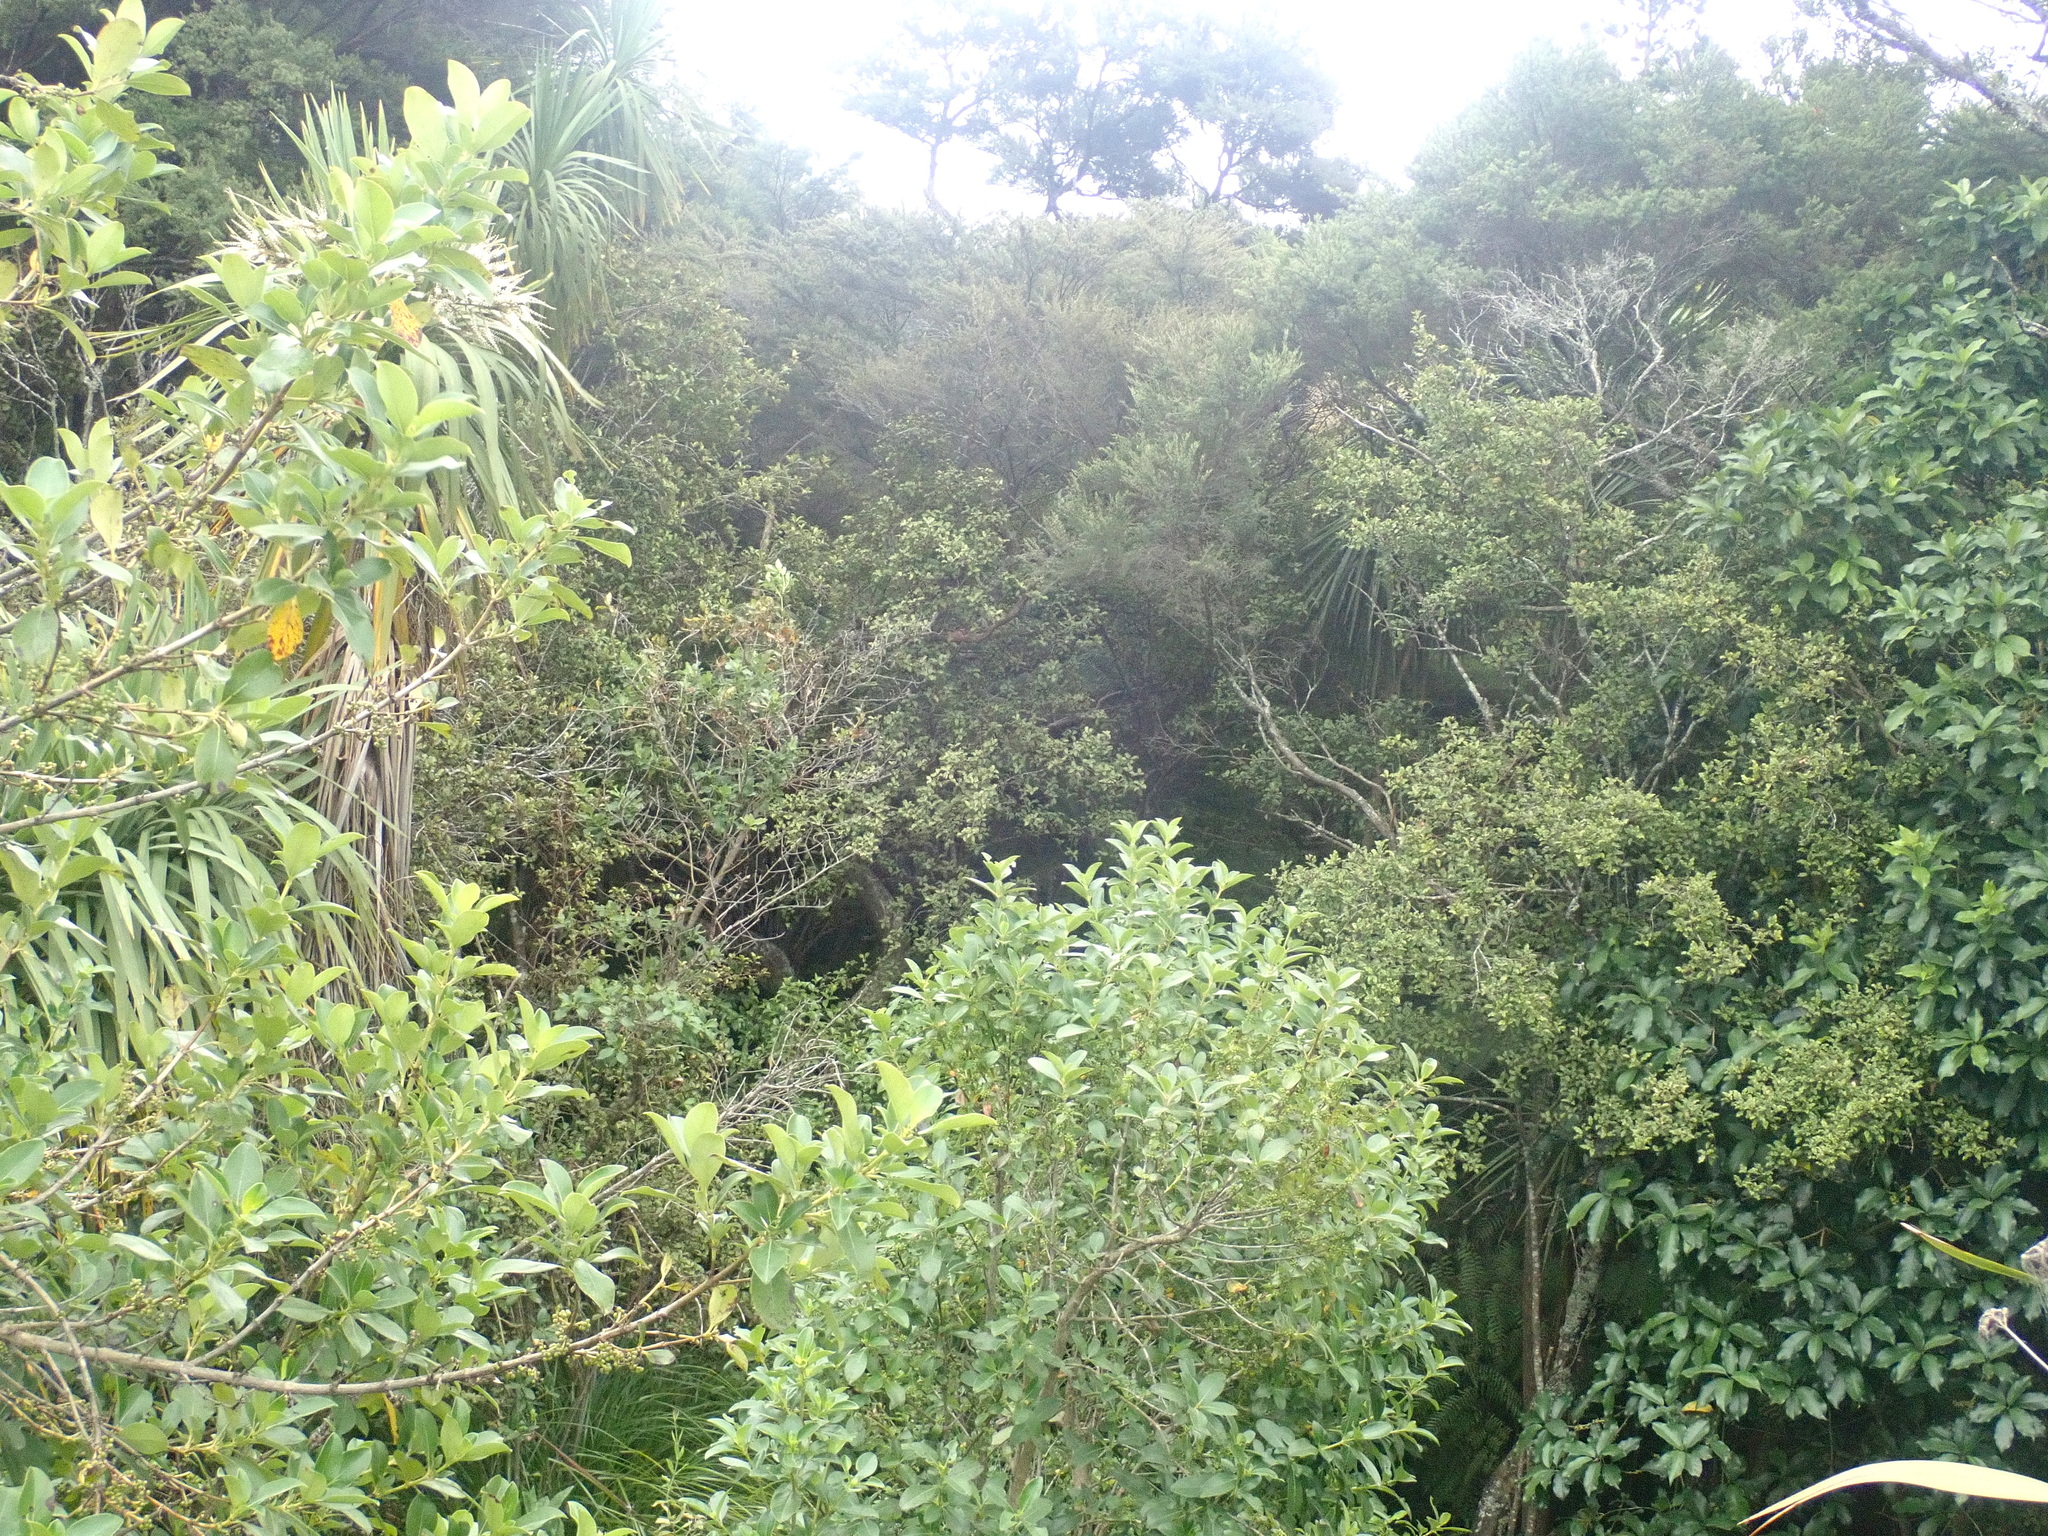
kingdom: Plantae
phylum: Tracheophyta
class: Magnoliopsida
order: Ericales
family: Primulaceae
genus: Myrsine
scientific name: Myrsine australis
